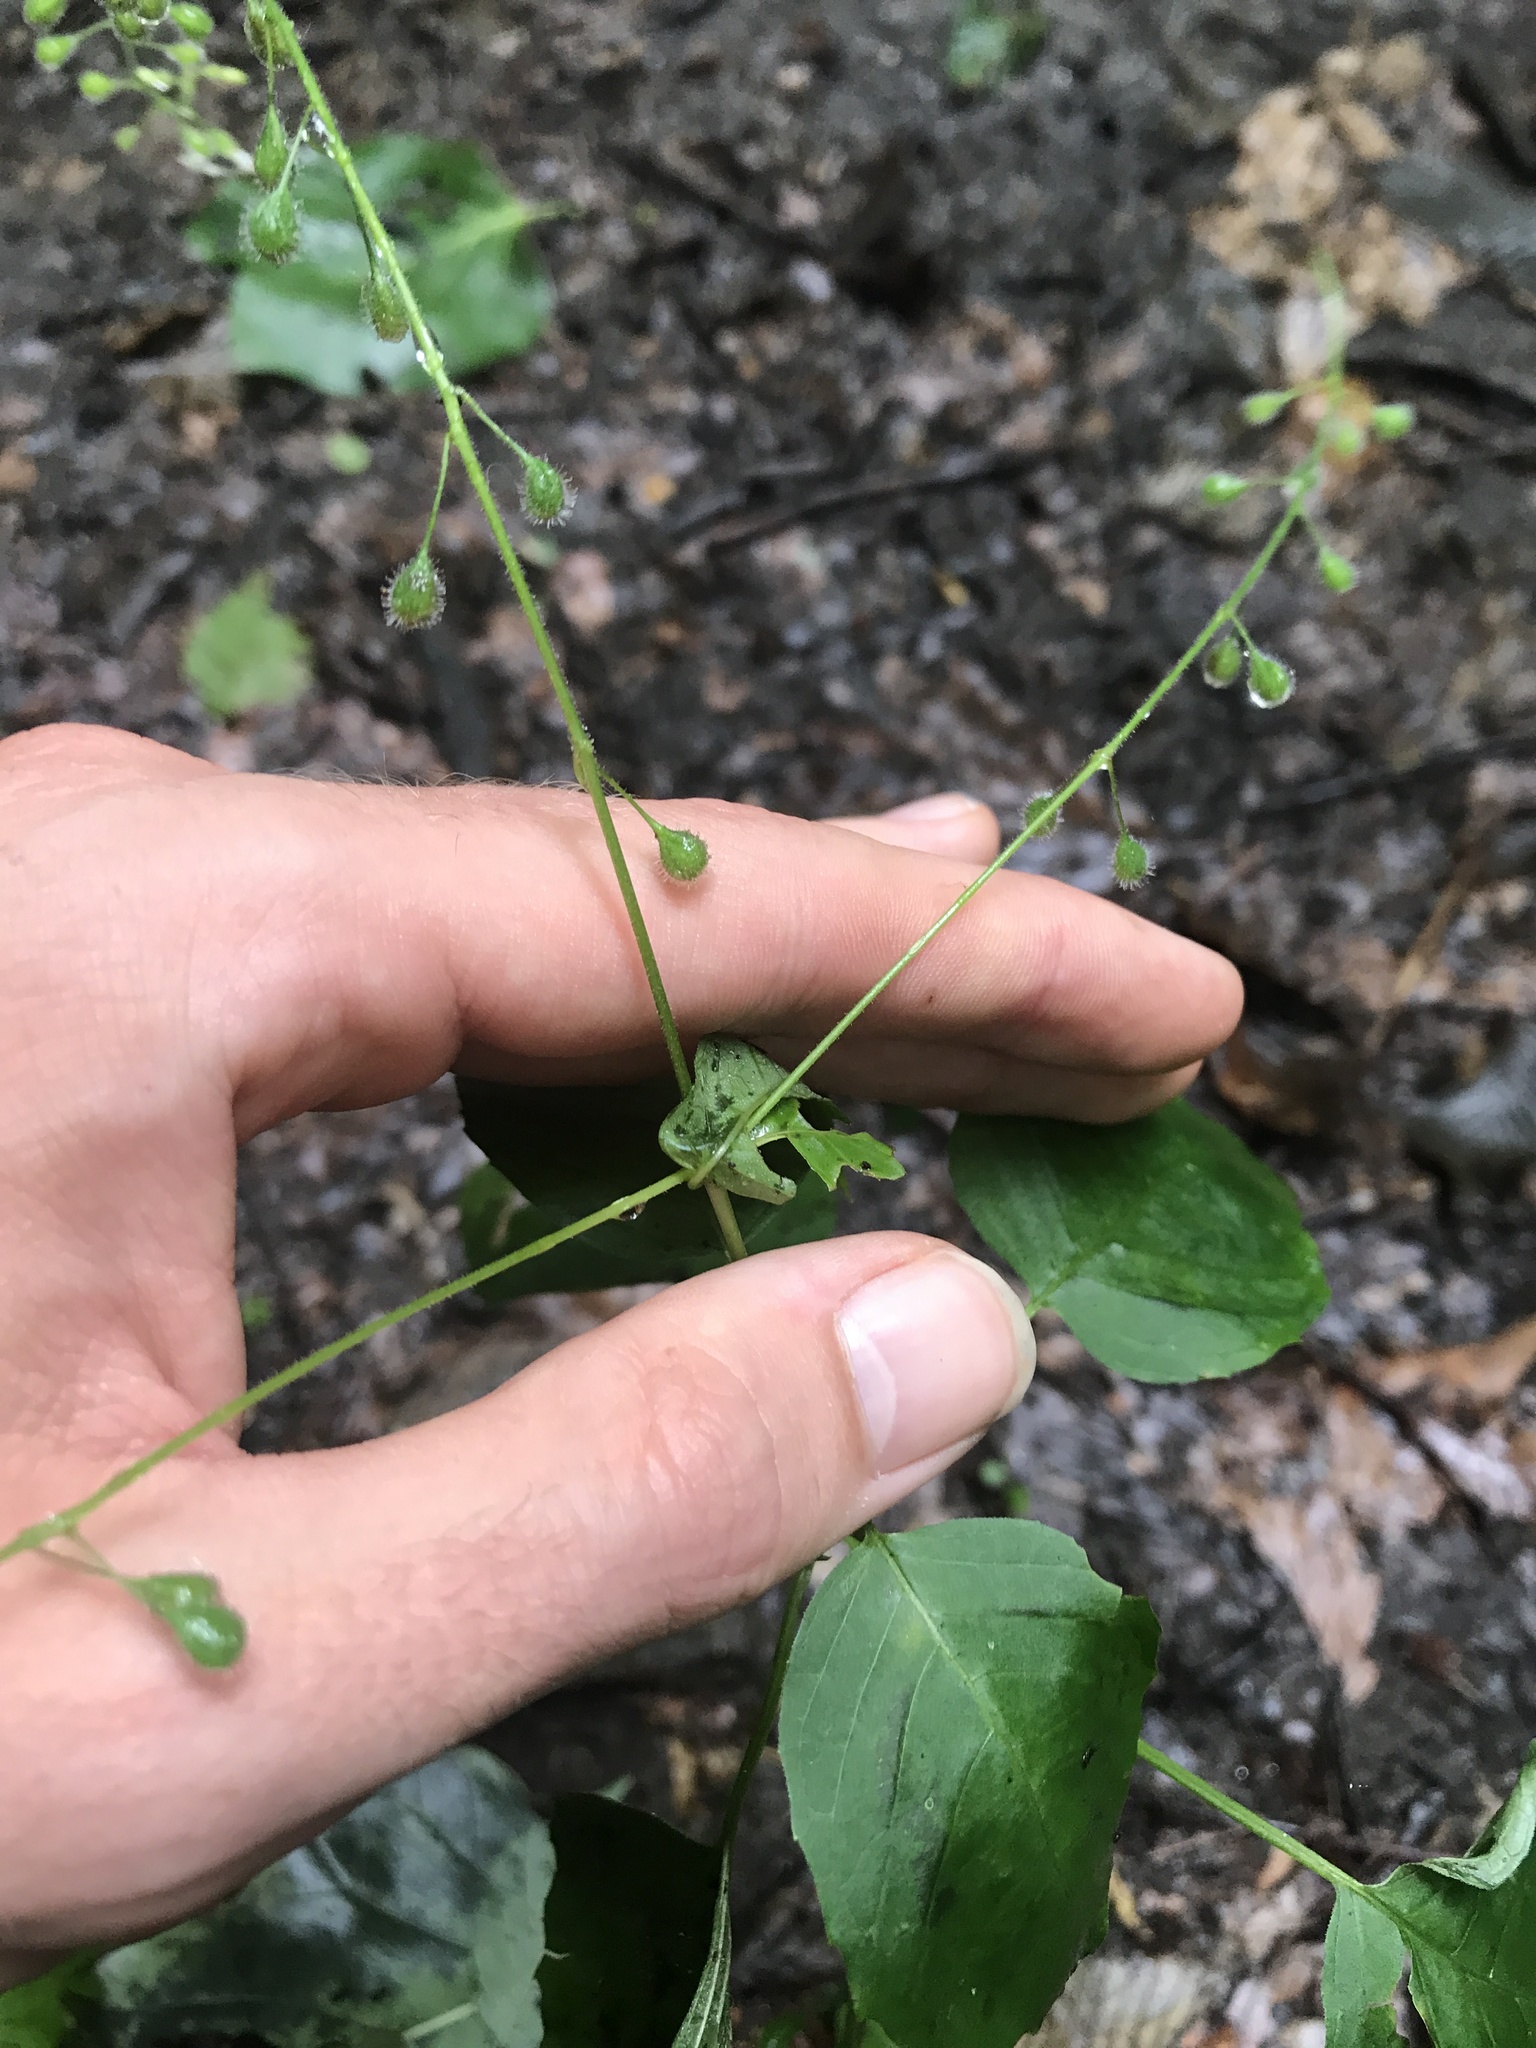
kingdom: Plantae
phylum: Tracheophyta
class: Magnoliopsida
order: Myrtales
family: Onagraceae
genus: Circaea
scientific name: Circaea canadensis
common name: Broad-leaved enchanter's nightshade
